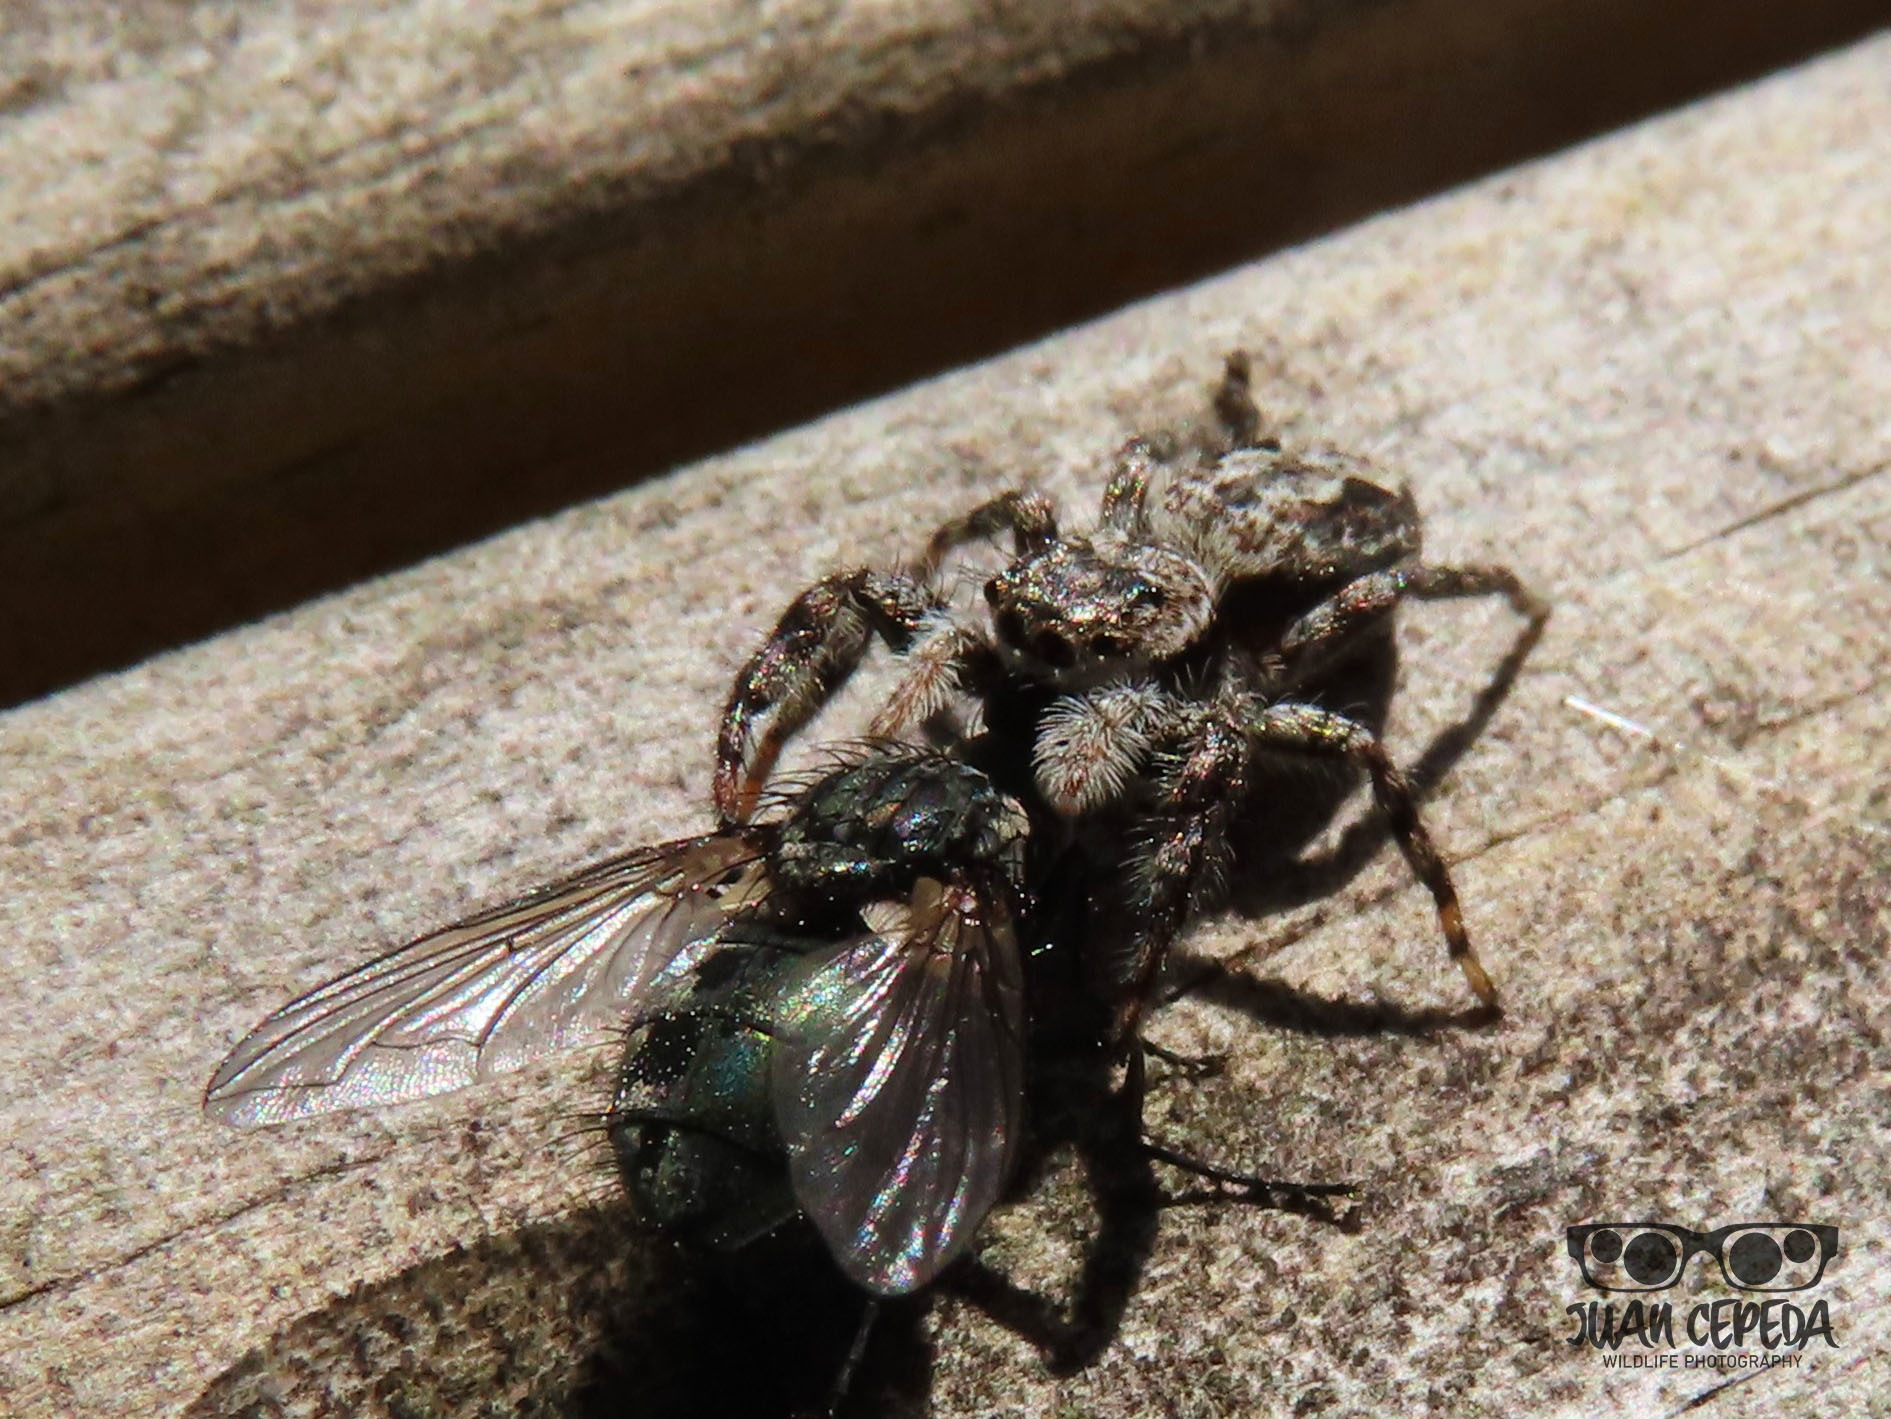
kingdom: Animalia
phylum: Arthropoda
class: Arachnida
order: Araneae
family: Salticidae
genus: Platycryptus
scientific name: Platycryptus undatus
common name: Tan jumping spider
